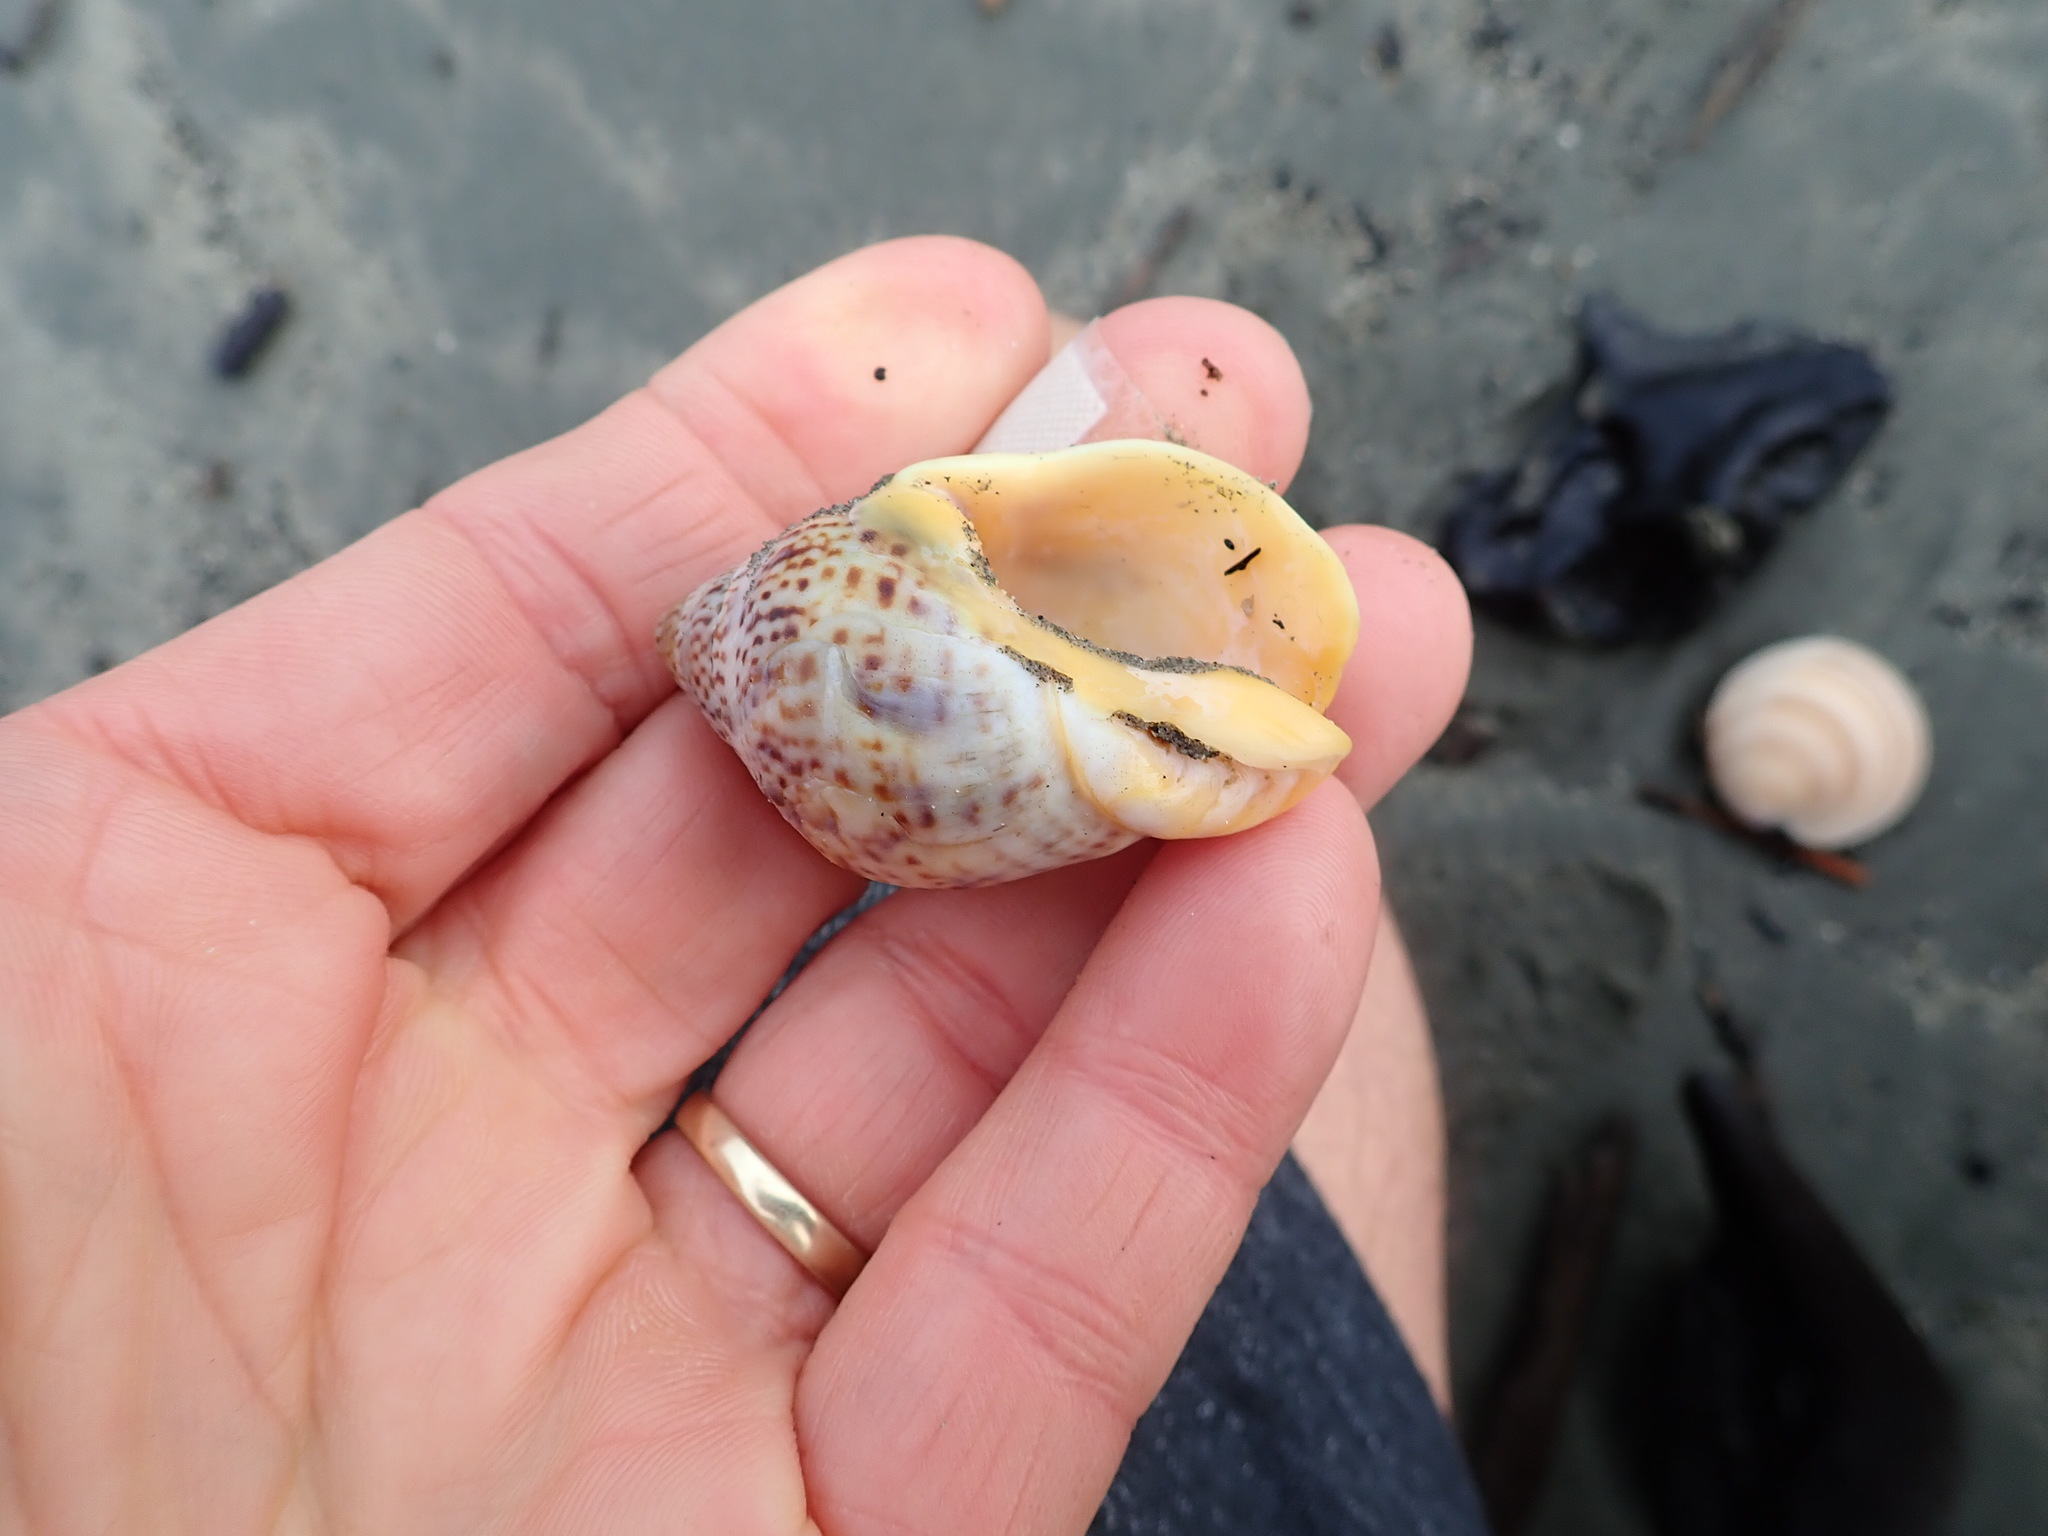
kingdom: Animalia
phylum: Mollusca
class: Gastropoda
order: Neogastropoda
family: Cominellidae
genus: Cominella
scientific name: Cominella adspersa
